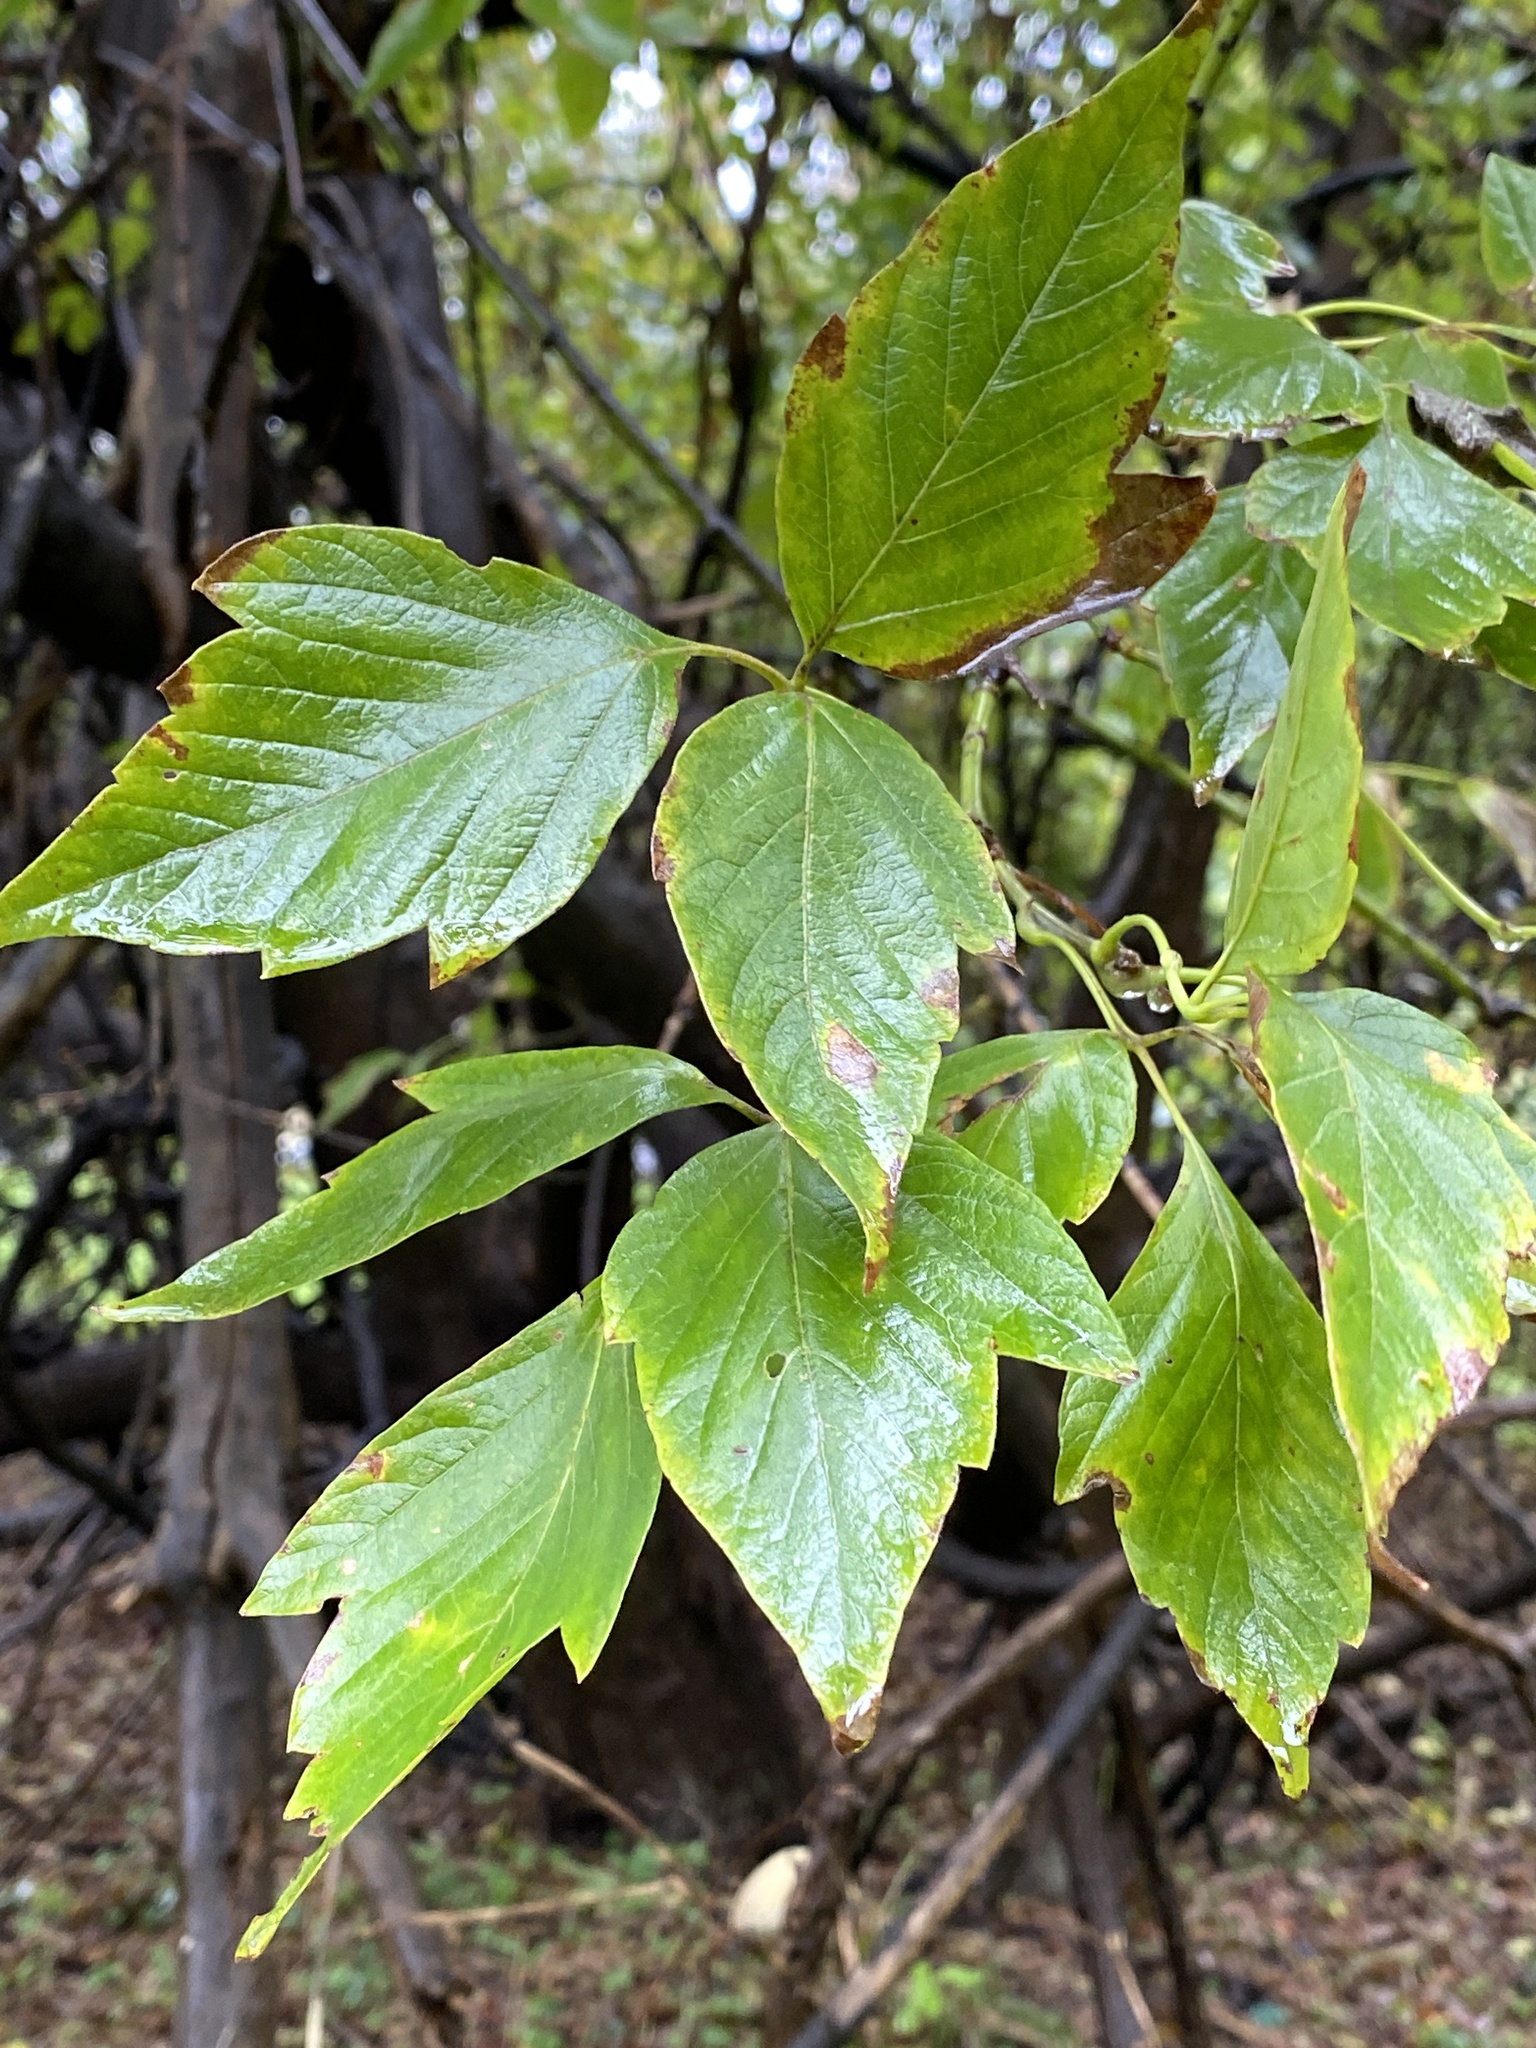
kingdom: Plantae
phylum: Tracheophyta
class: Magnoliopsida
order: Sapindales
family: Sapindaceae
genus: Acer
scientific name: Acer negundo
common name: Ashleaf maple
